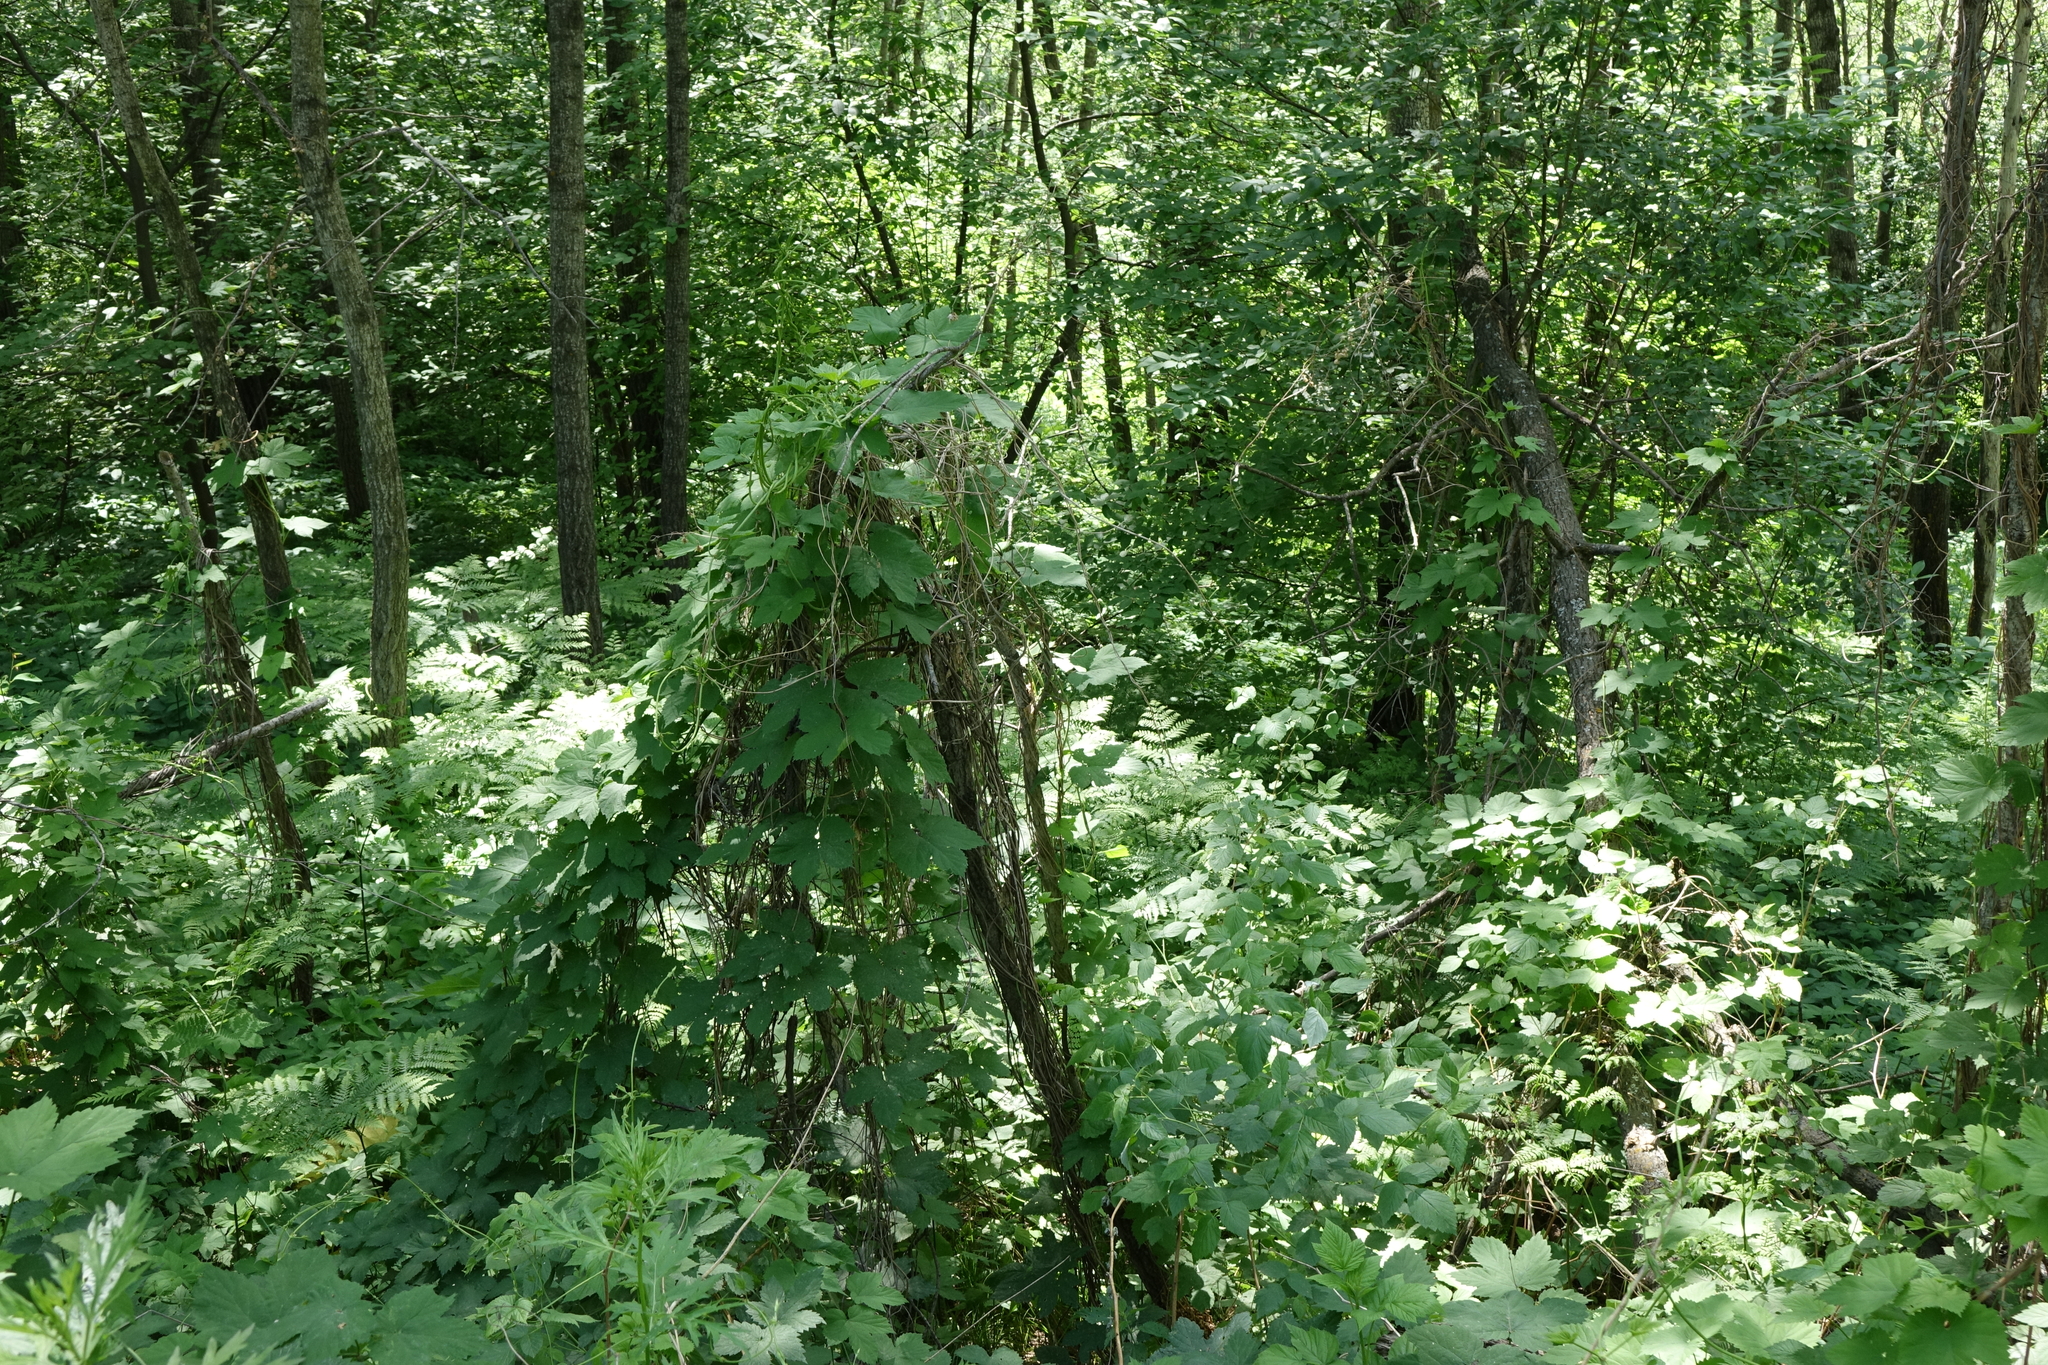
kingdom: Plantae
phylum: Tracheophyta
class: Magnoliopsida
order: Rosales
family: Cannabaceae
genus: Humulus
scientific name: Humulus lupulus
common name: Hop
